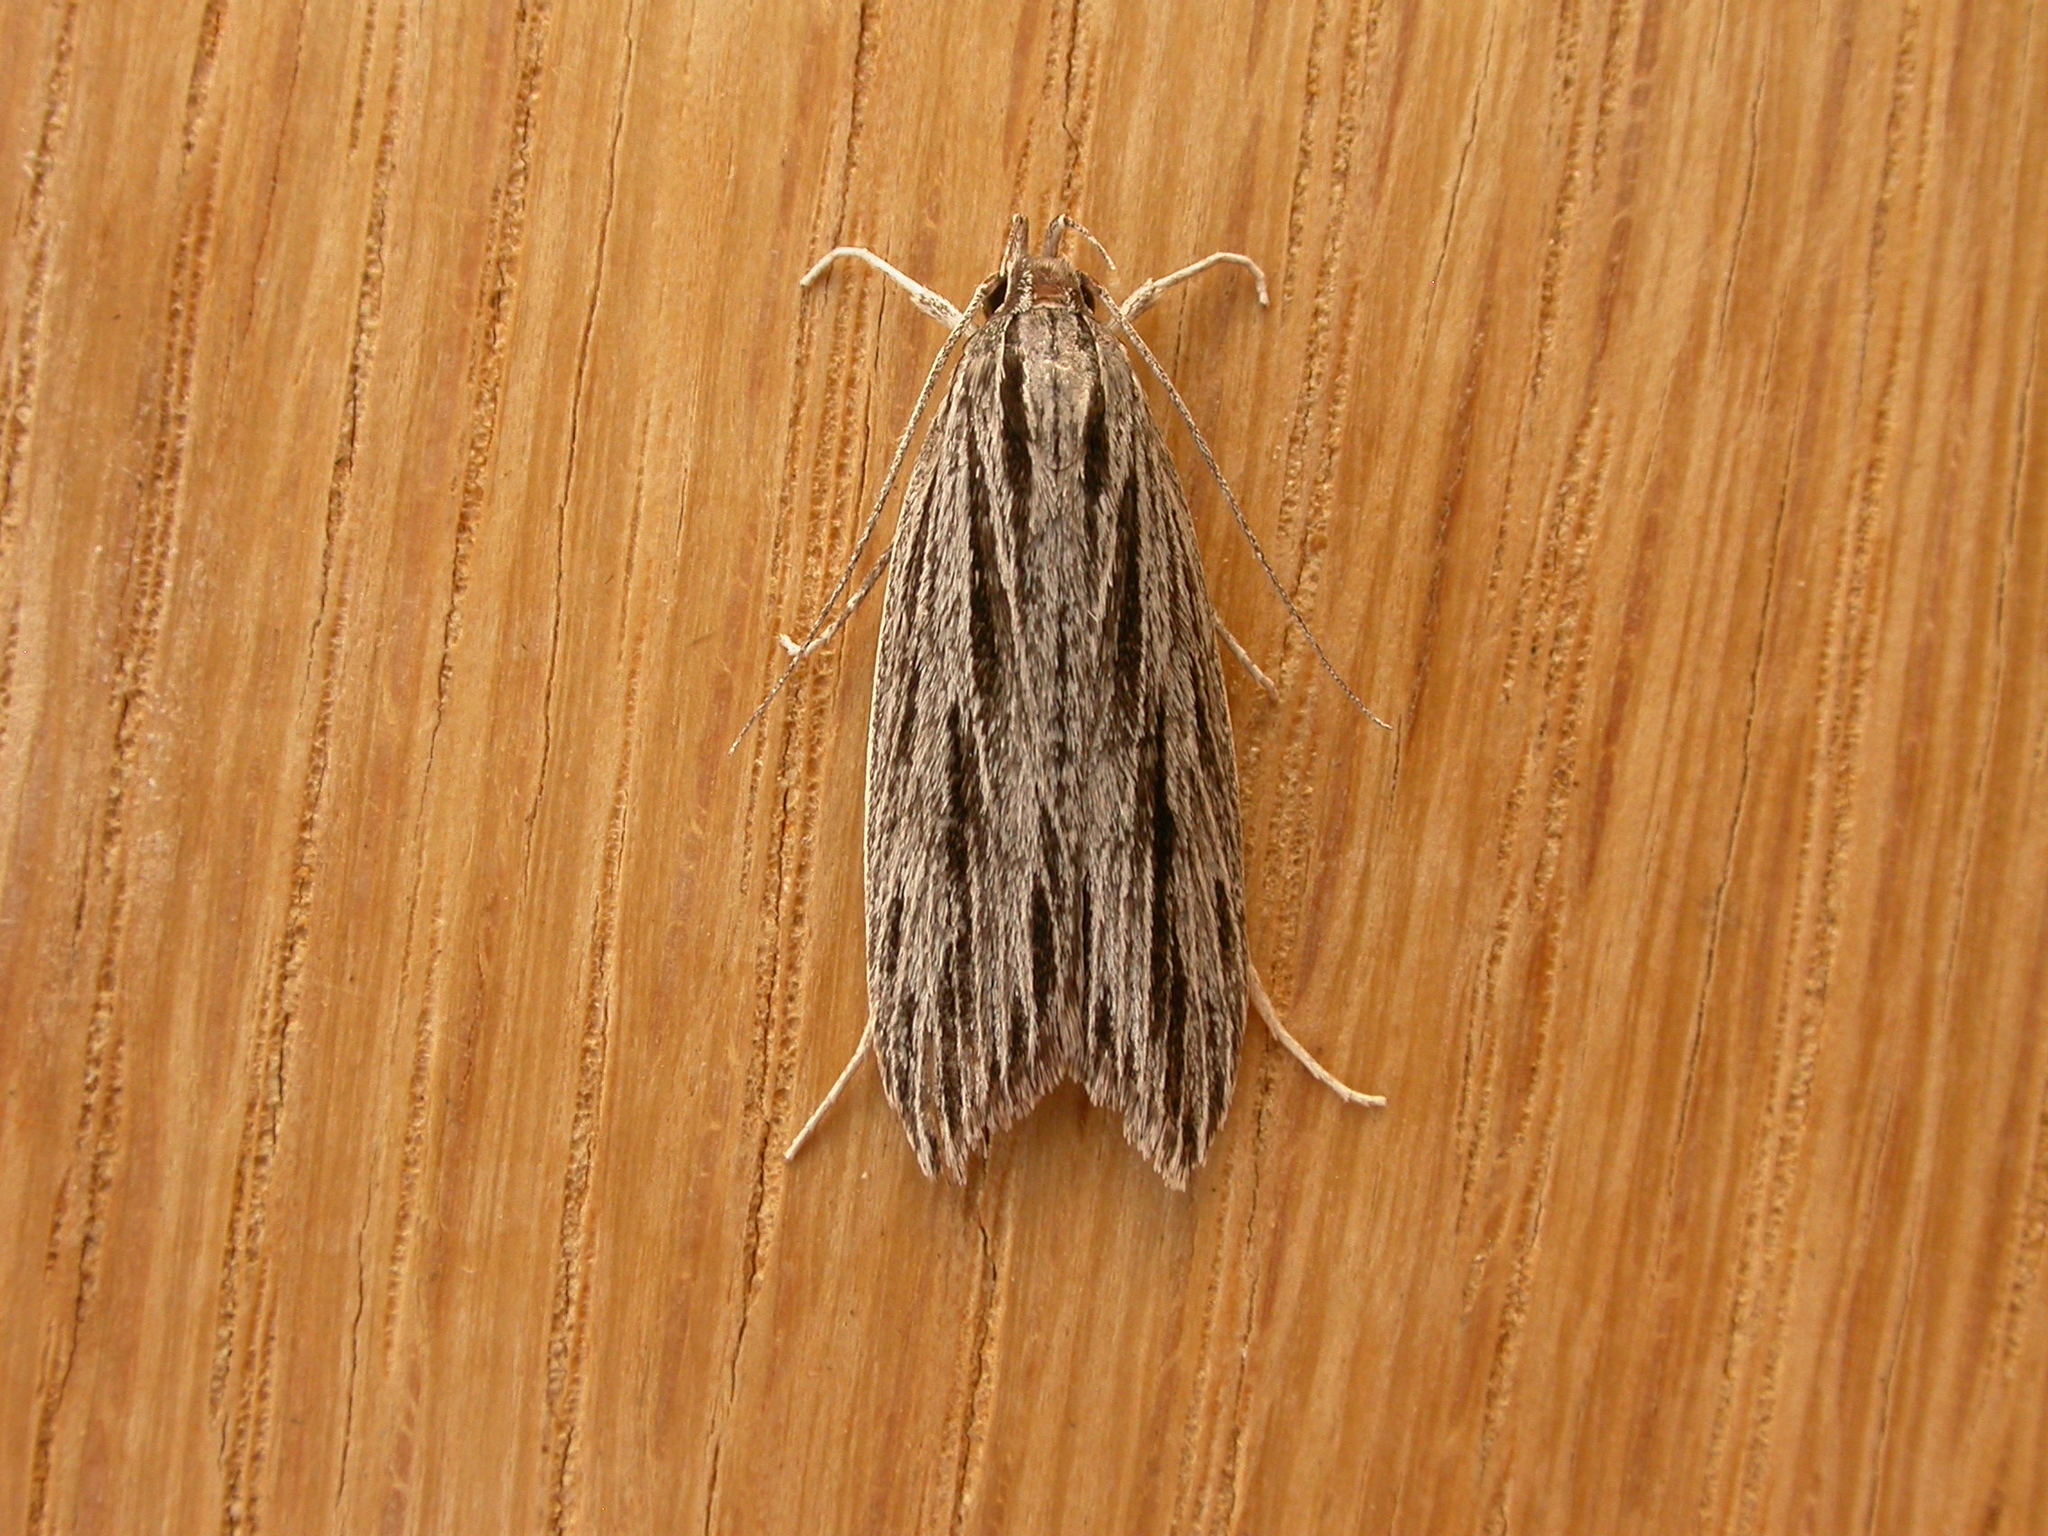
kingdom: Animalia
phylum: Arthropoda
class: Insecta
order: Lepidoptera
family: Xyloryctidae
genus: Leistarcha
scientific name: Leistarcha scitissimella
